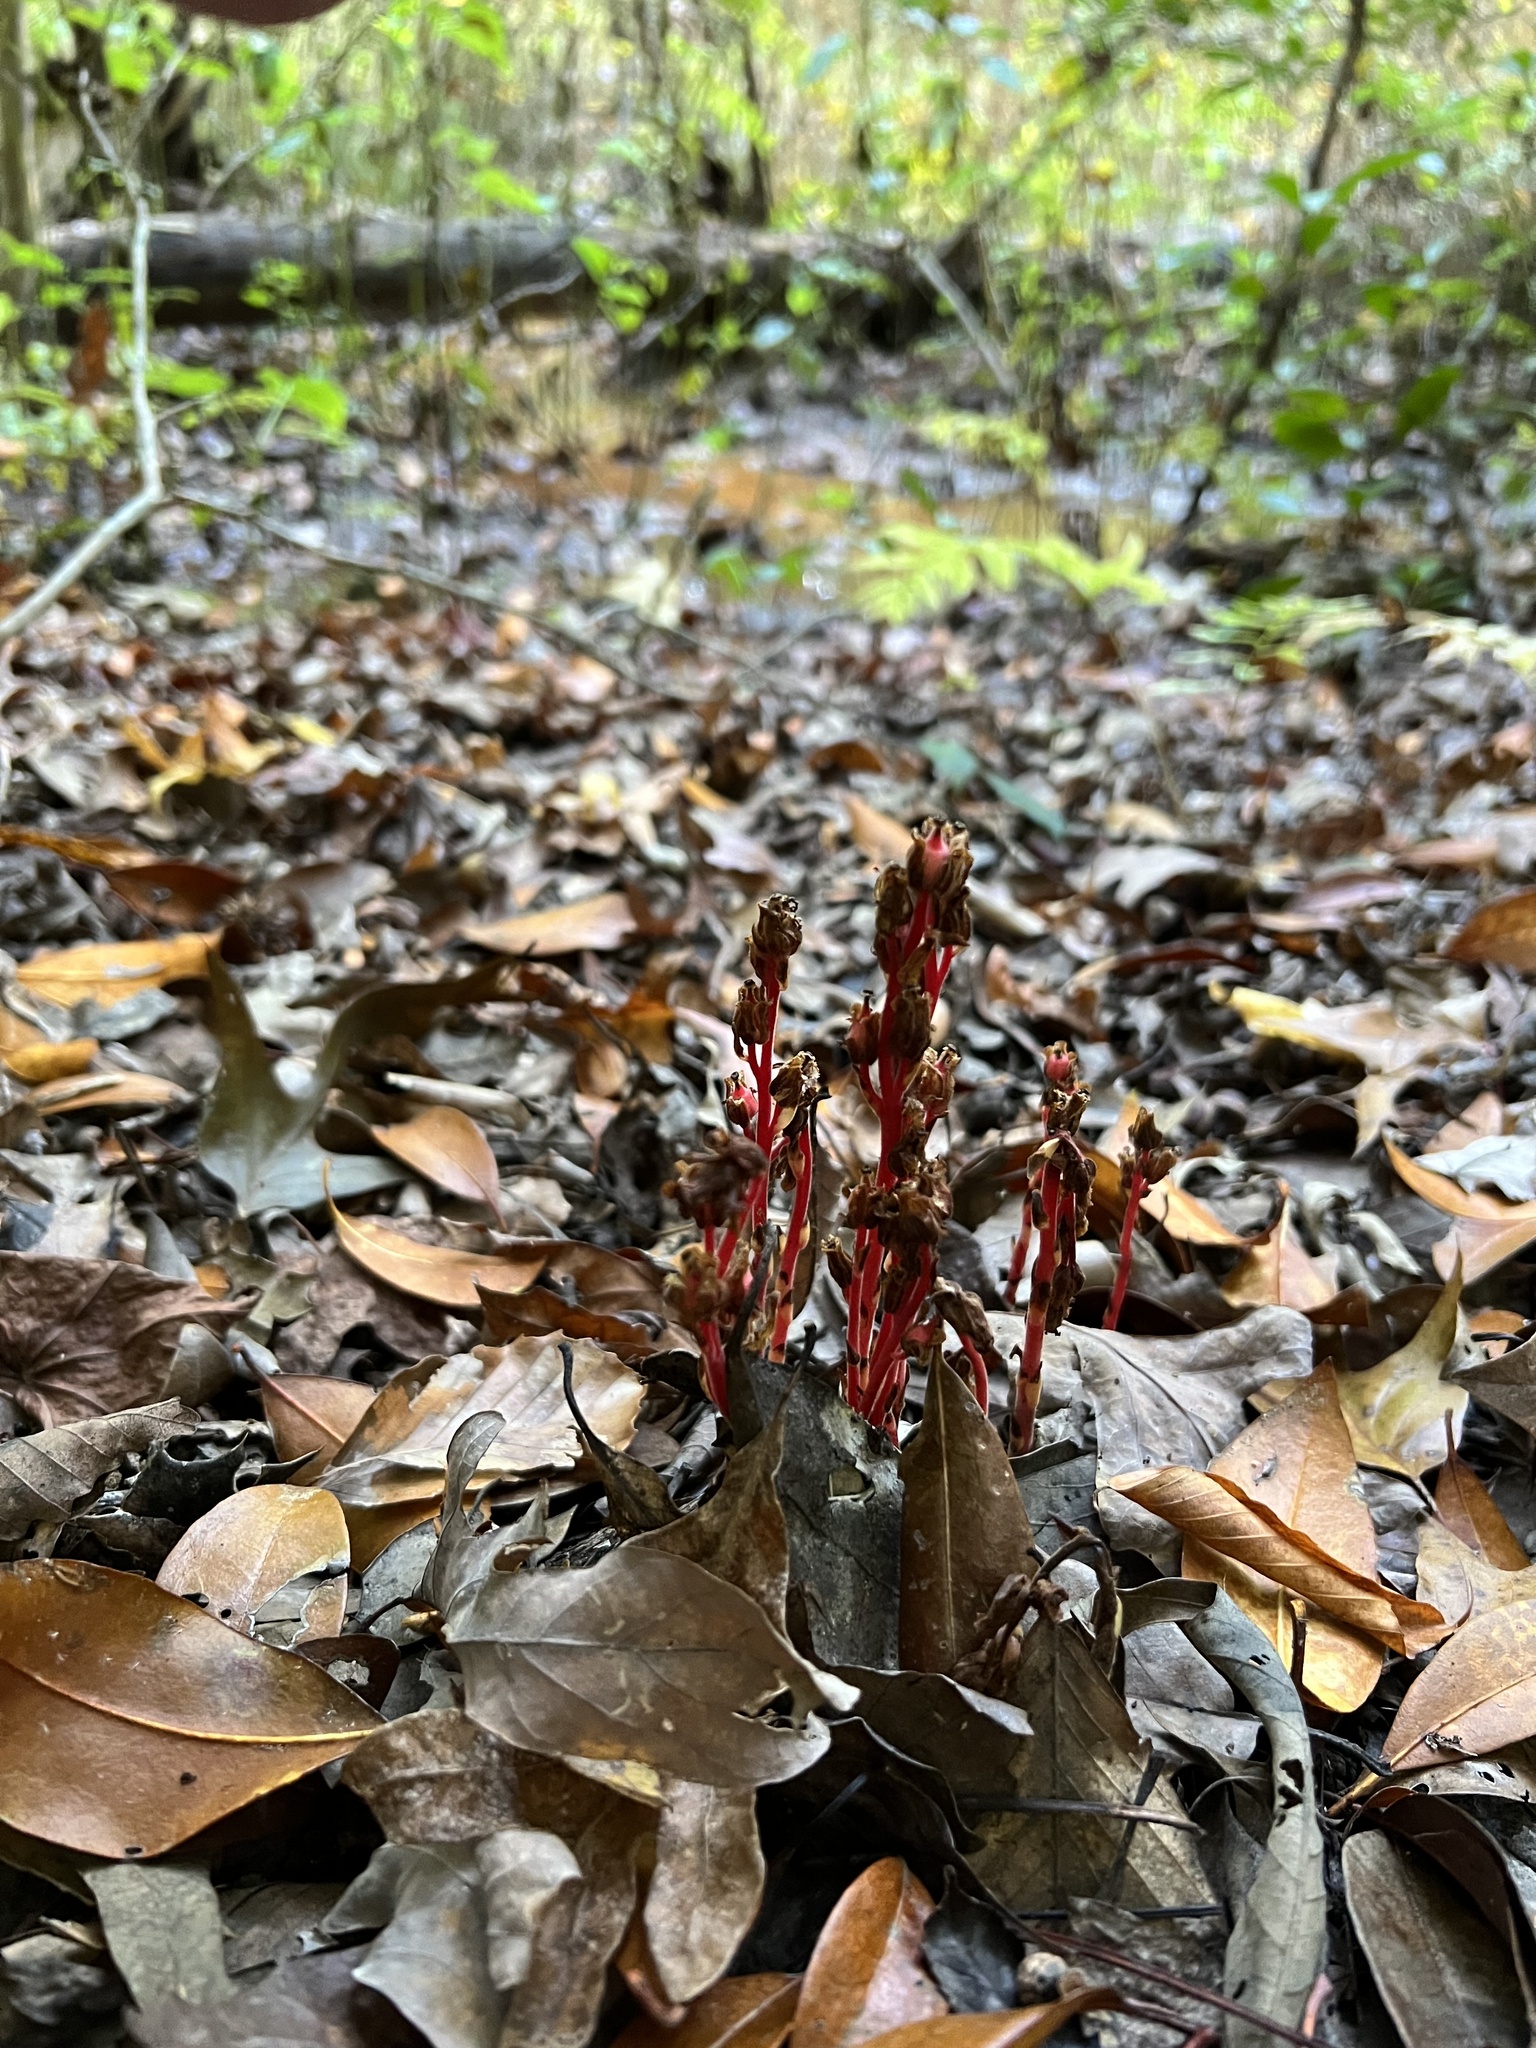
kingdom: Plantae
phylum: Tracheophyta
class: Magnoliopsida
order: Ericales
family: Ericaceae
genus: Hypopitys
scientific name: Hypopitys monotropa
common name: Yellow bird's-nest
